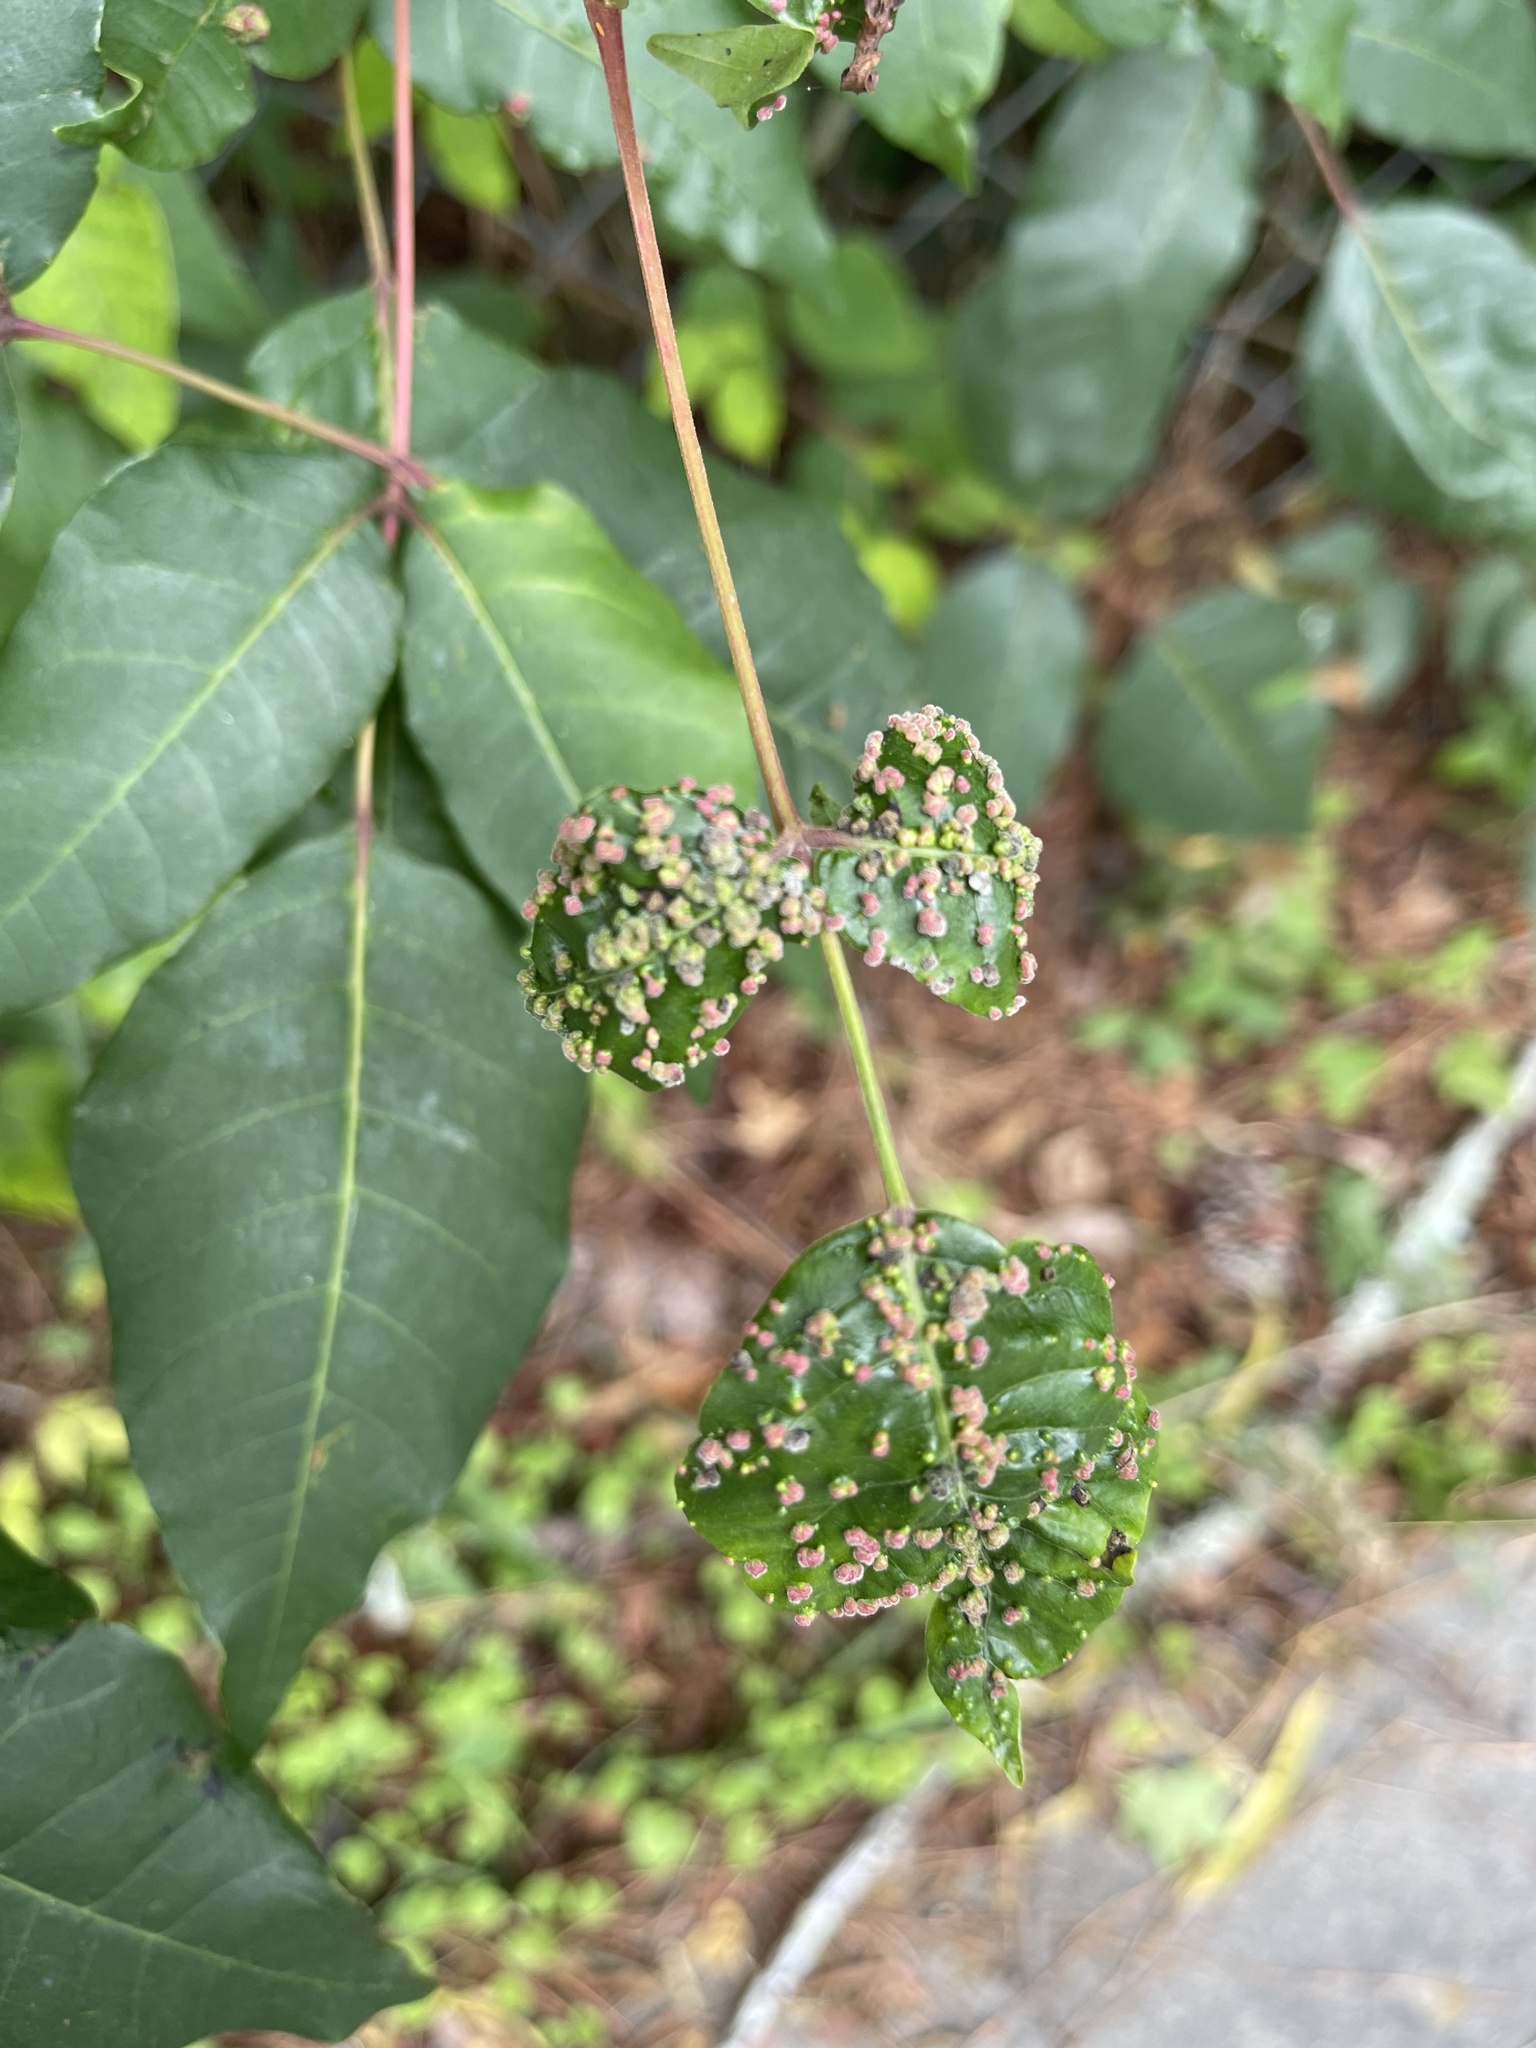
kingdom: Animalia
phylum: Arthropoda
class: Arachnida
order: Trombidiformes
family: Eriophyidae
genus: Aculops
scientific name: Aculops
